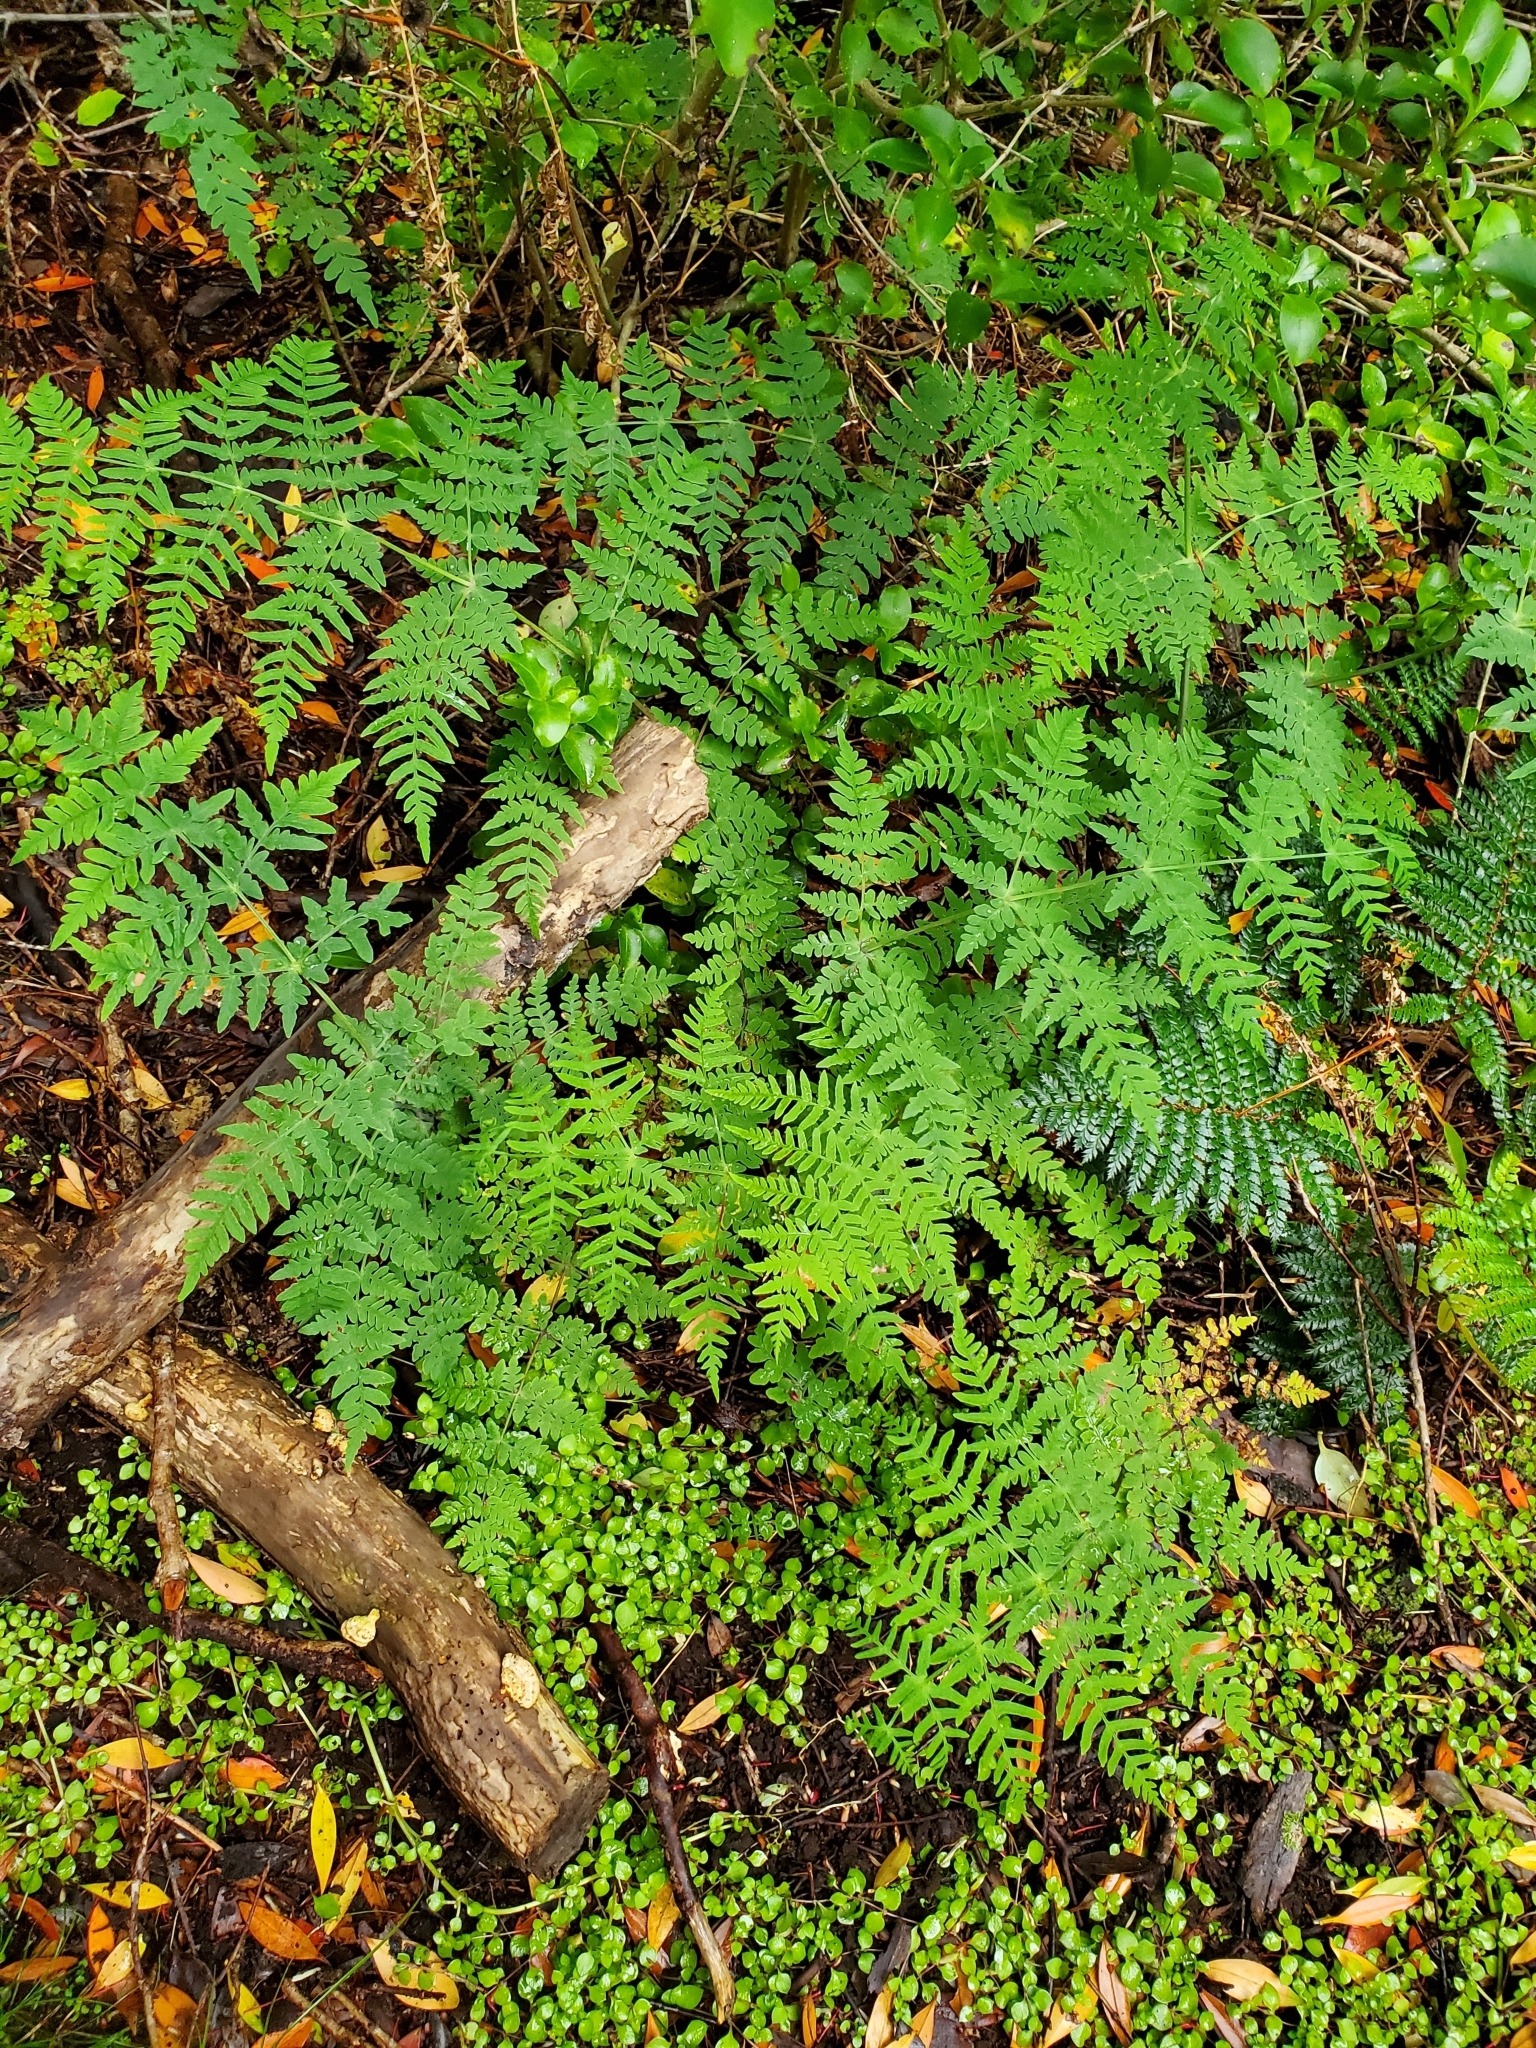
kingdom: Plantae
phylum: Tracheophyta
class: Polypodiopsida
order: Polypodiales
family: Dennstaedtiaceae
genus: Histiopteris
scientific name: Histiopteris incisa
